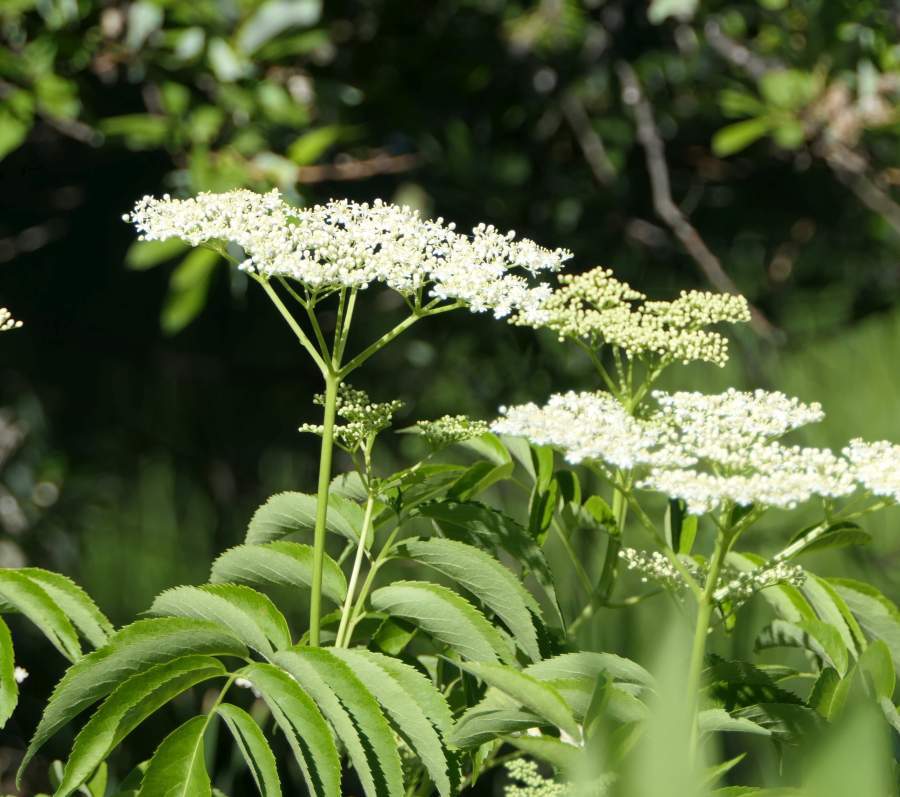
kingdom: Plantae
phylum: Tracheophyta
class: Magnoliopsida
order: Dipsacales
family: Viburnaceae
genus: Sambucus
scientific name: Sambucus canadensis
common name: American elder
